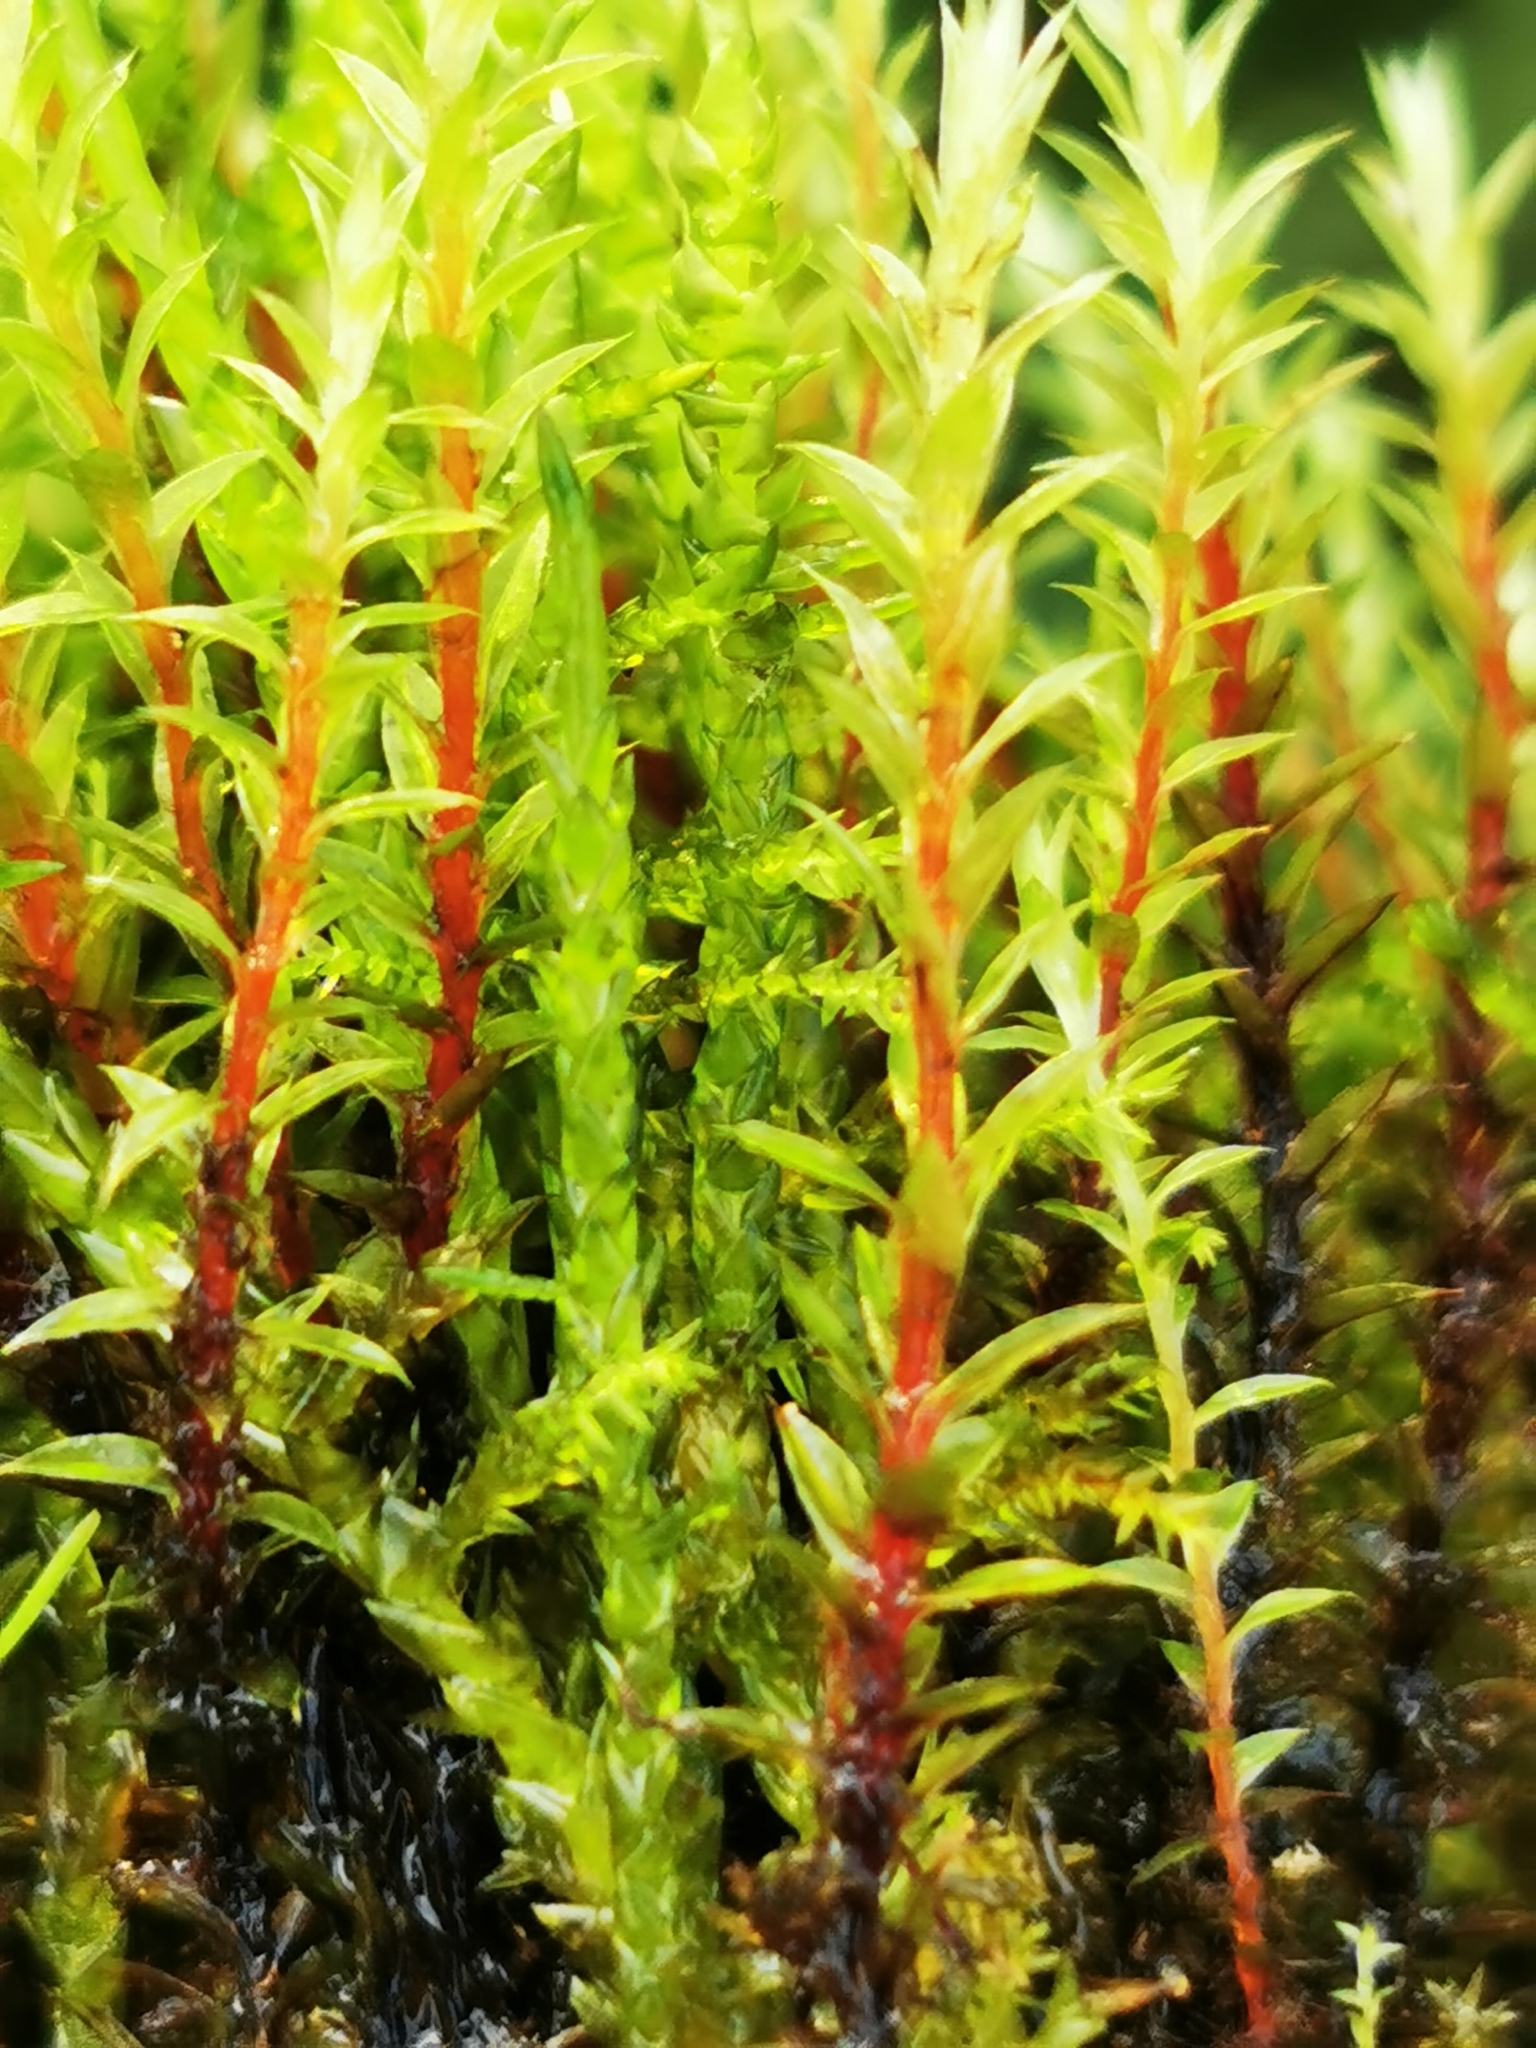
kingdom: Plantae
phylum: Bryophyta
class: Bryopsida
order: Bryales
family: Bryaceae
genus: Ptychostomum
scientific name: Ptychostomum pseudotriquetrum
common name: Long-leaved thread moss
